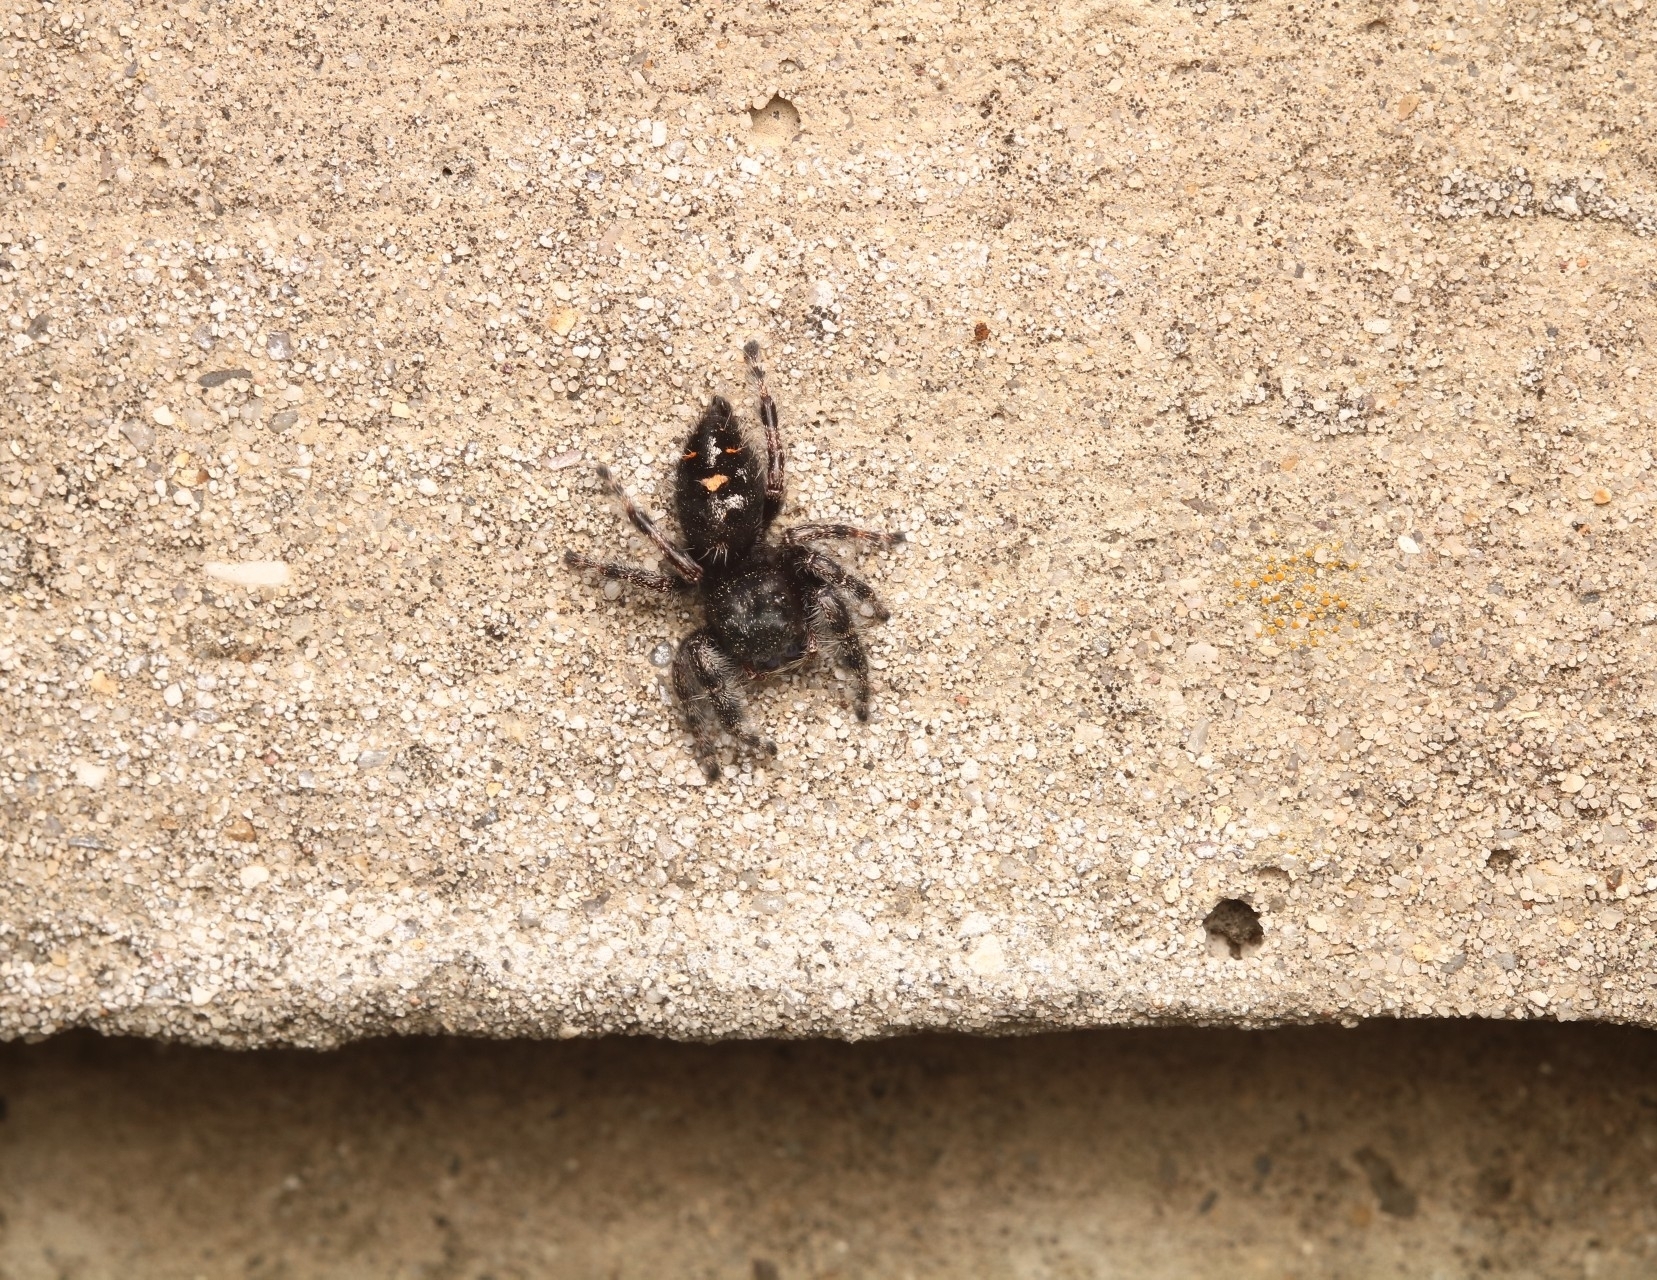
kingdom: Animalia
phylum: Arthropoda
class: Arachnida
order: Araneae
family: Salticidae
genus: Phidippus
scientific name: Phidippus audax
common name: Bold jumper
